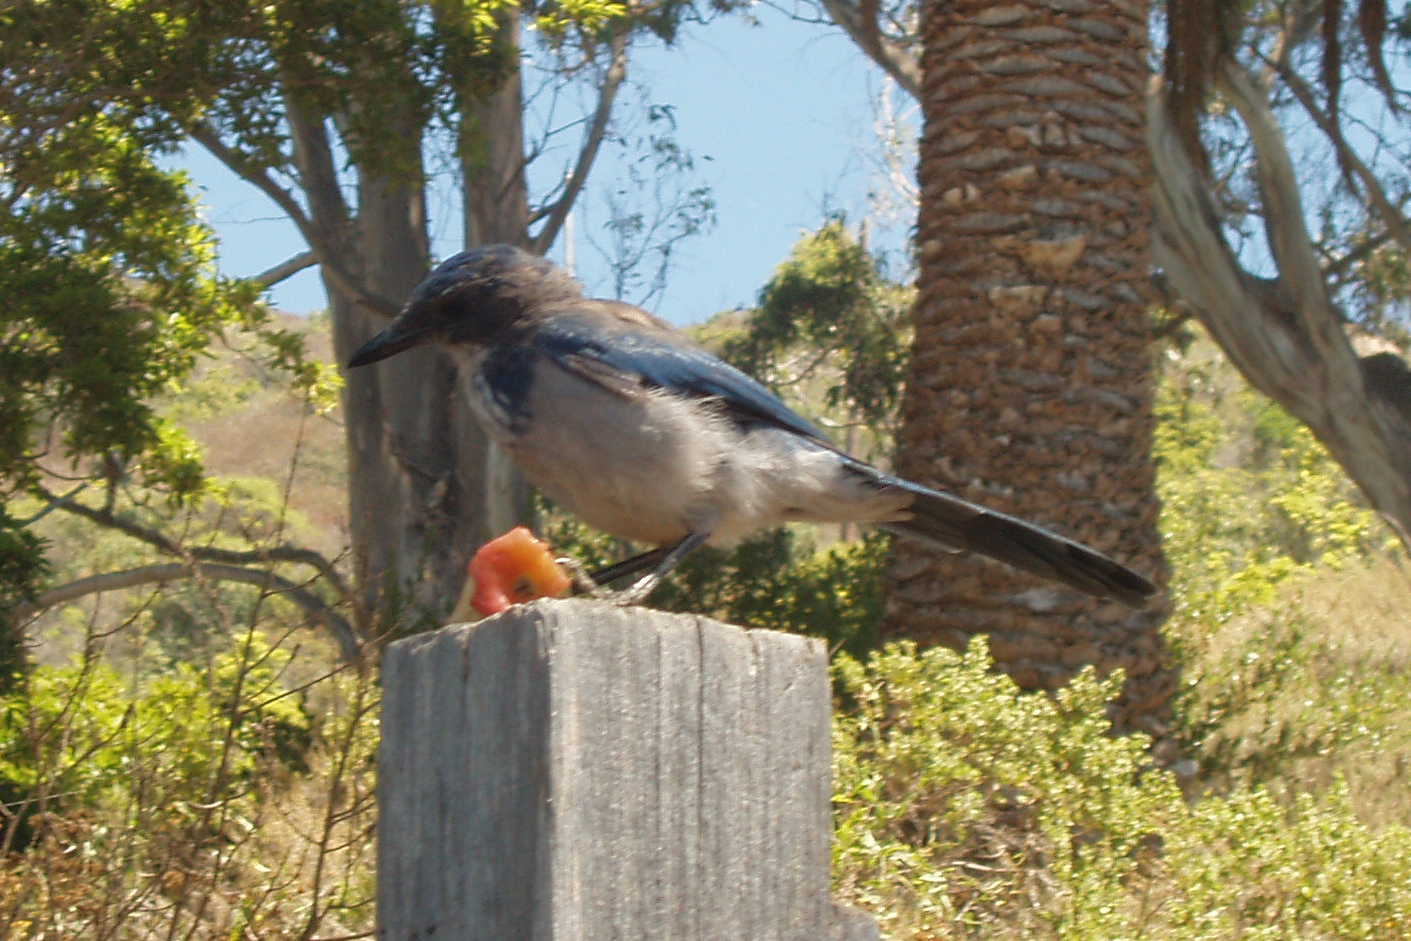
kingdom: Animalia
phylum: Chordata
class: Aves
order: Passeriformes
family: Corvidae
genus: Aphelocoma
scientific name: Aphelocoma californica
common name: California scrub-jay
